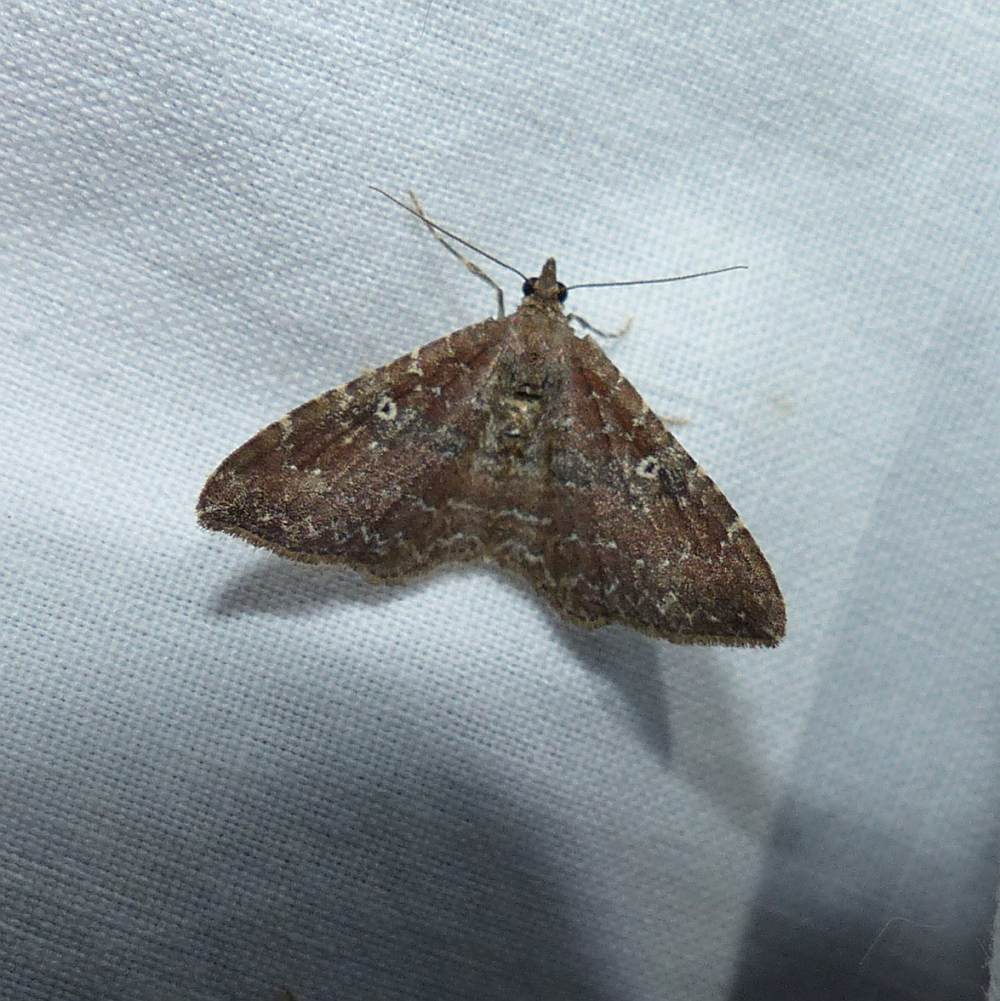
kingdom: Animalia
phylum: Arthropoda
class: Insecta
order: Lepidoptera
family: Geometridae
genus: Orthonama
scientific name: Orthonama obstipata
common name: The gem
